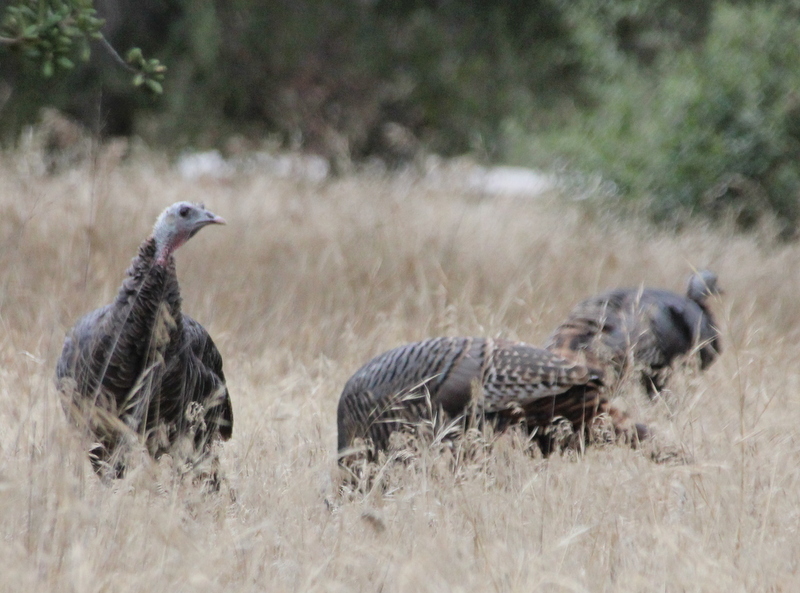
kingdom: Animalia
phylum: Chordata
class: Aves
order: Galliformes
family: Phasianidae
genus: Meleagris
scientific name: Meleagris gallopavo
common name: Wild turkey
